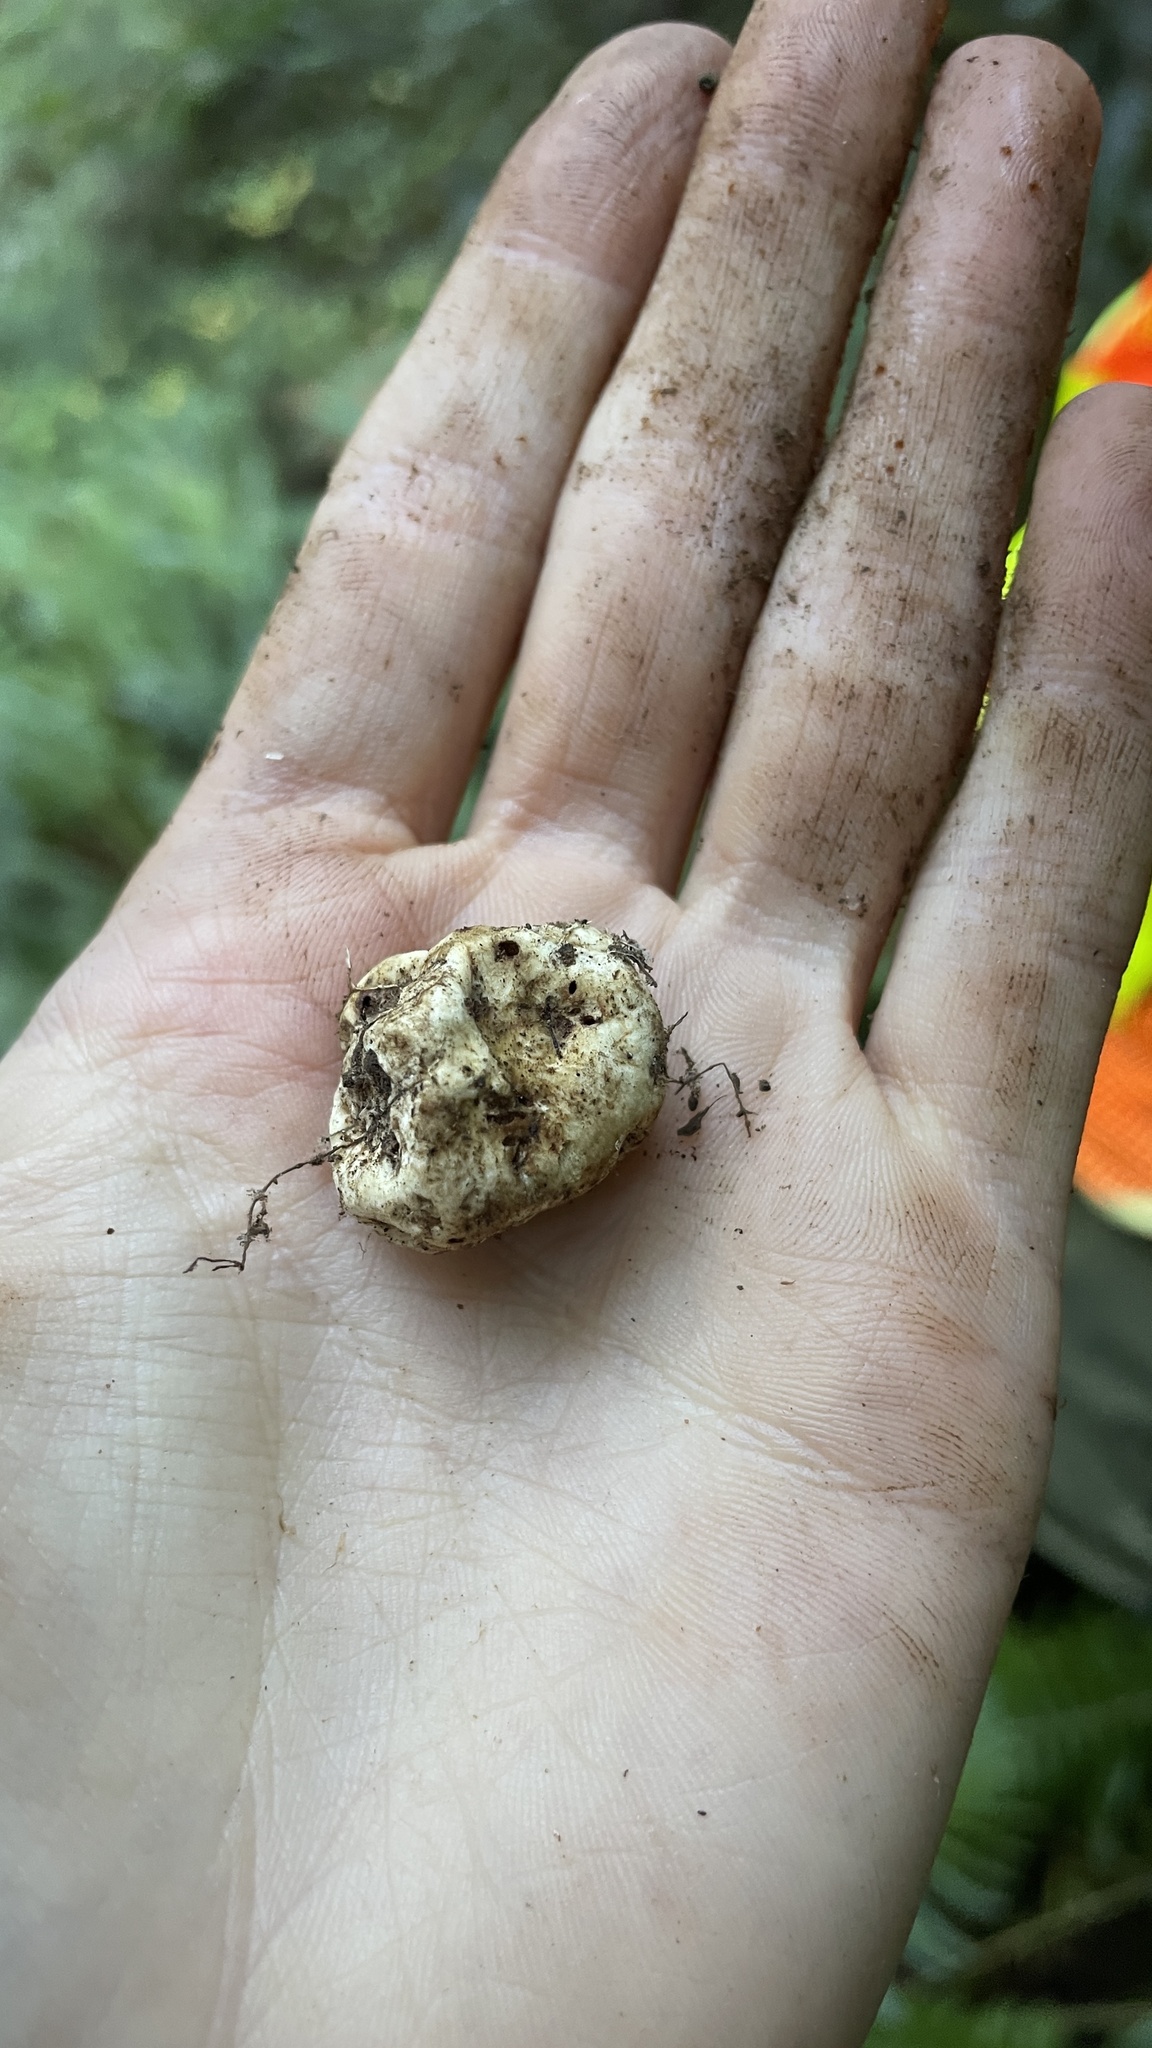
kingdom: Fungi
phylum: Basidiomycota
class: Agaricomycetes
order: Russulales
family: Russulaceae
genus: Russula
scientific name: Russula similaris
